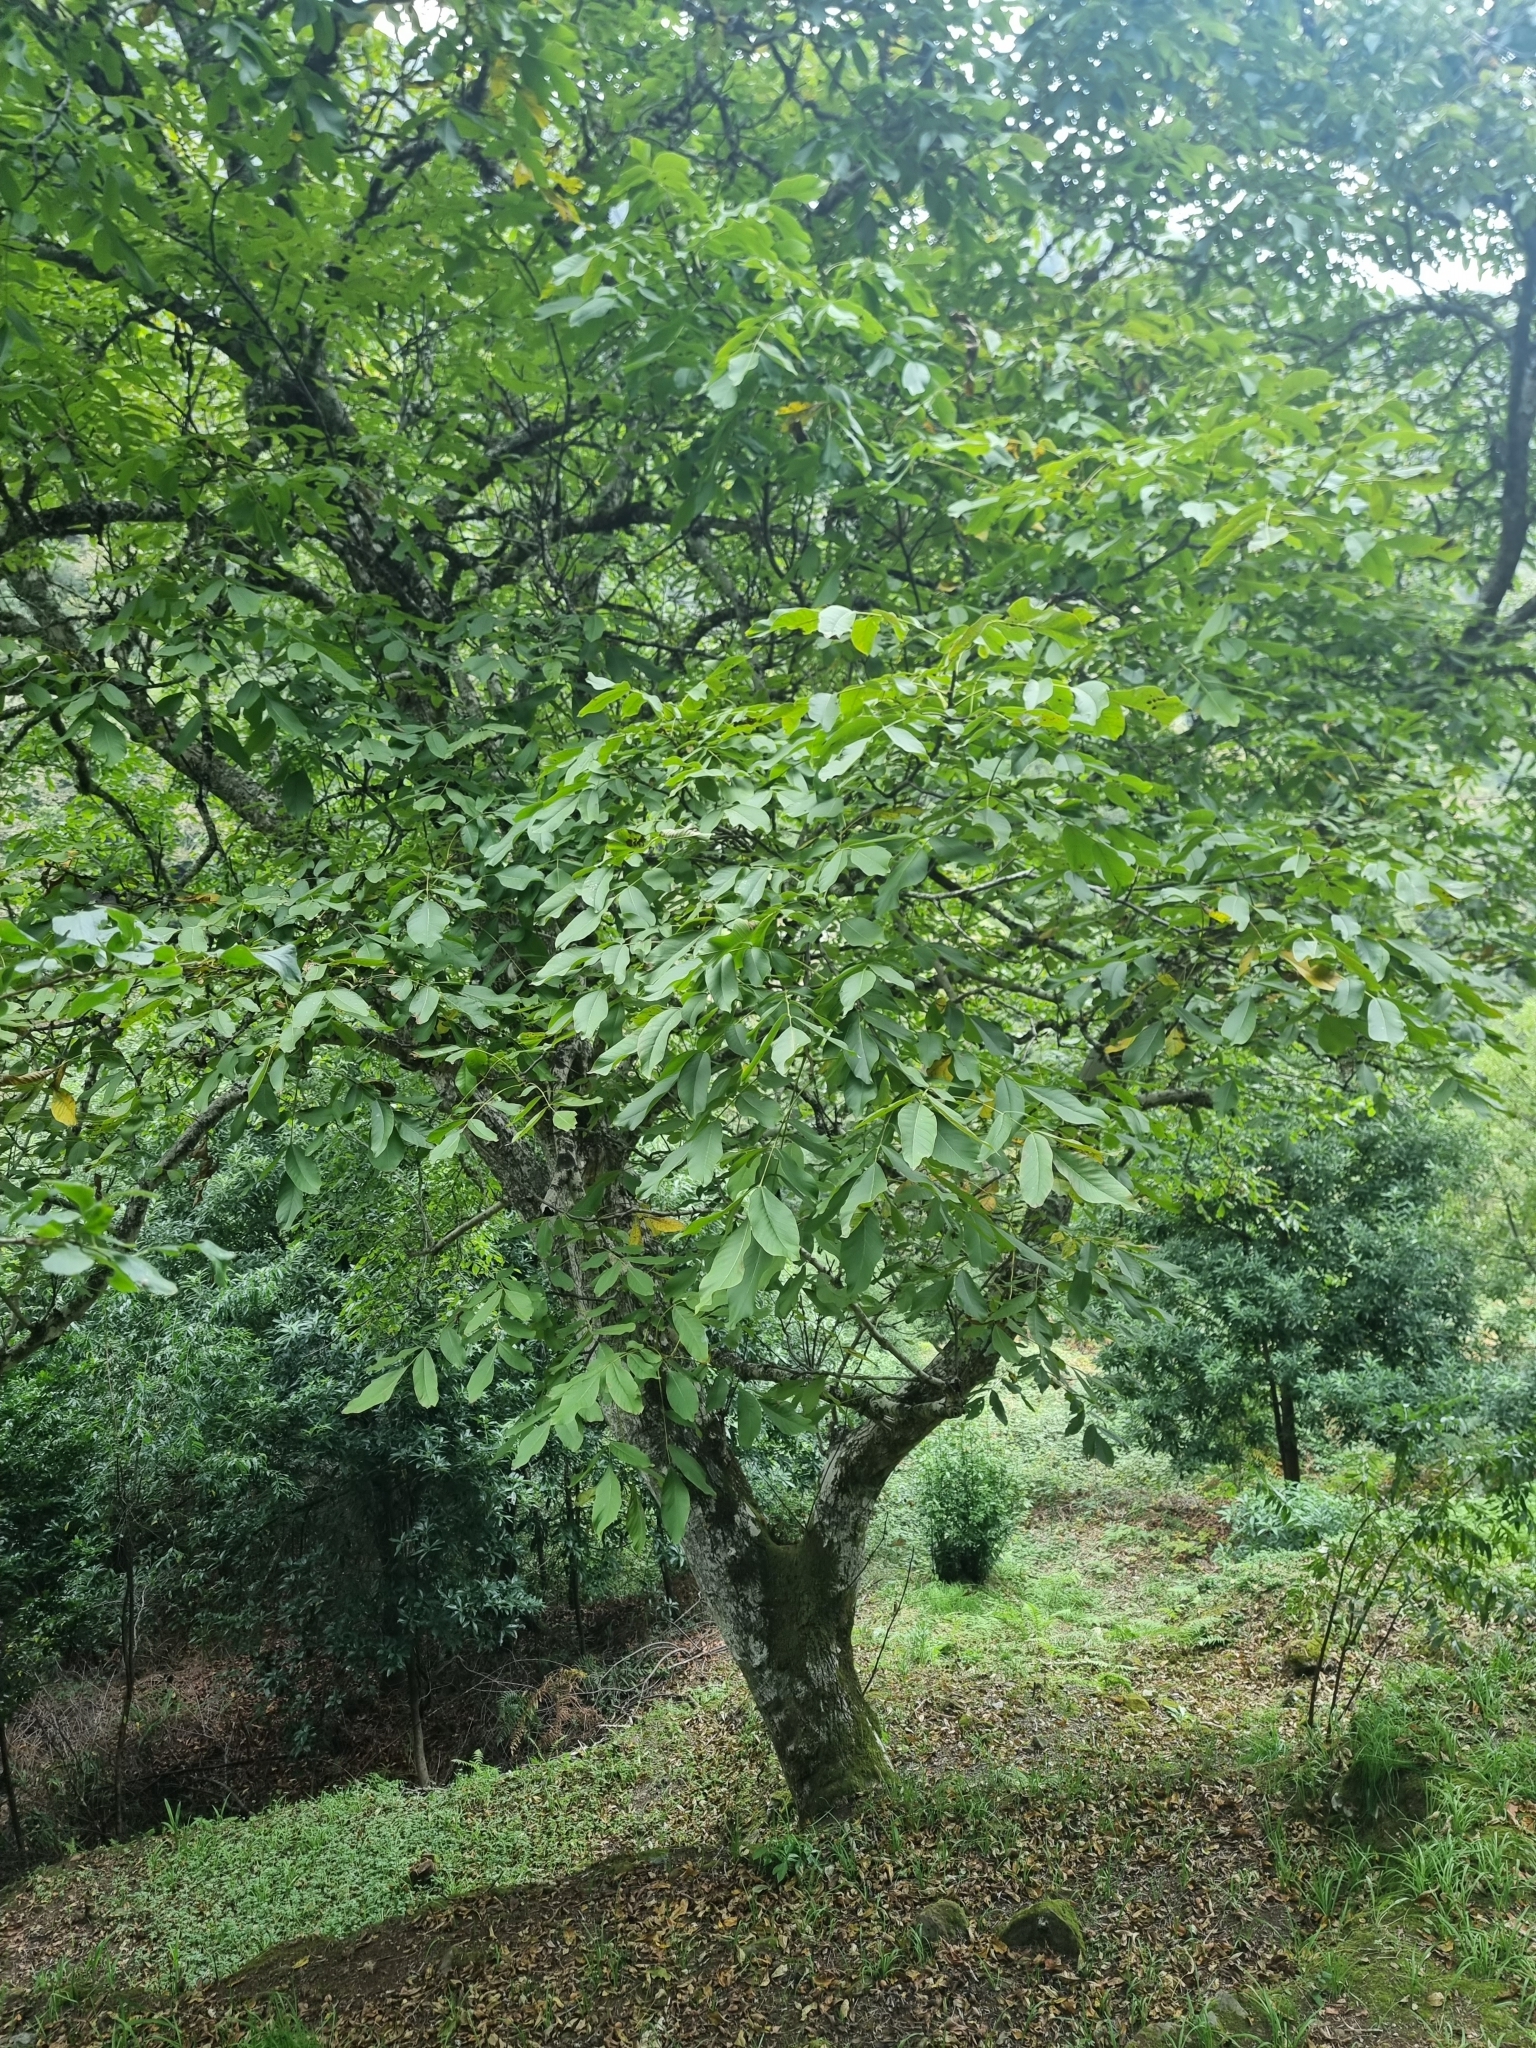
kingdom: Plantae
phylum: Tracheophyta
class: Magnoliopsida
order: Fagales
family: Juglandaceae
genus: Juglans
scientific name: Juglans regia
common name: Walnut
